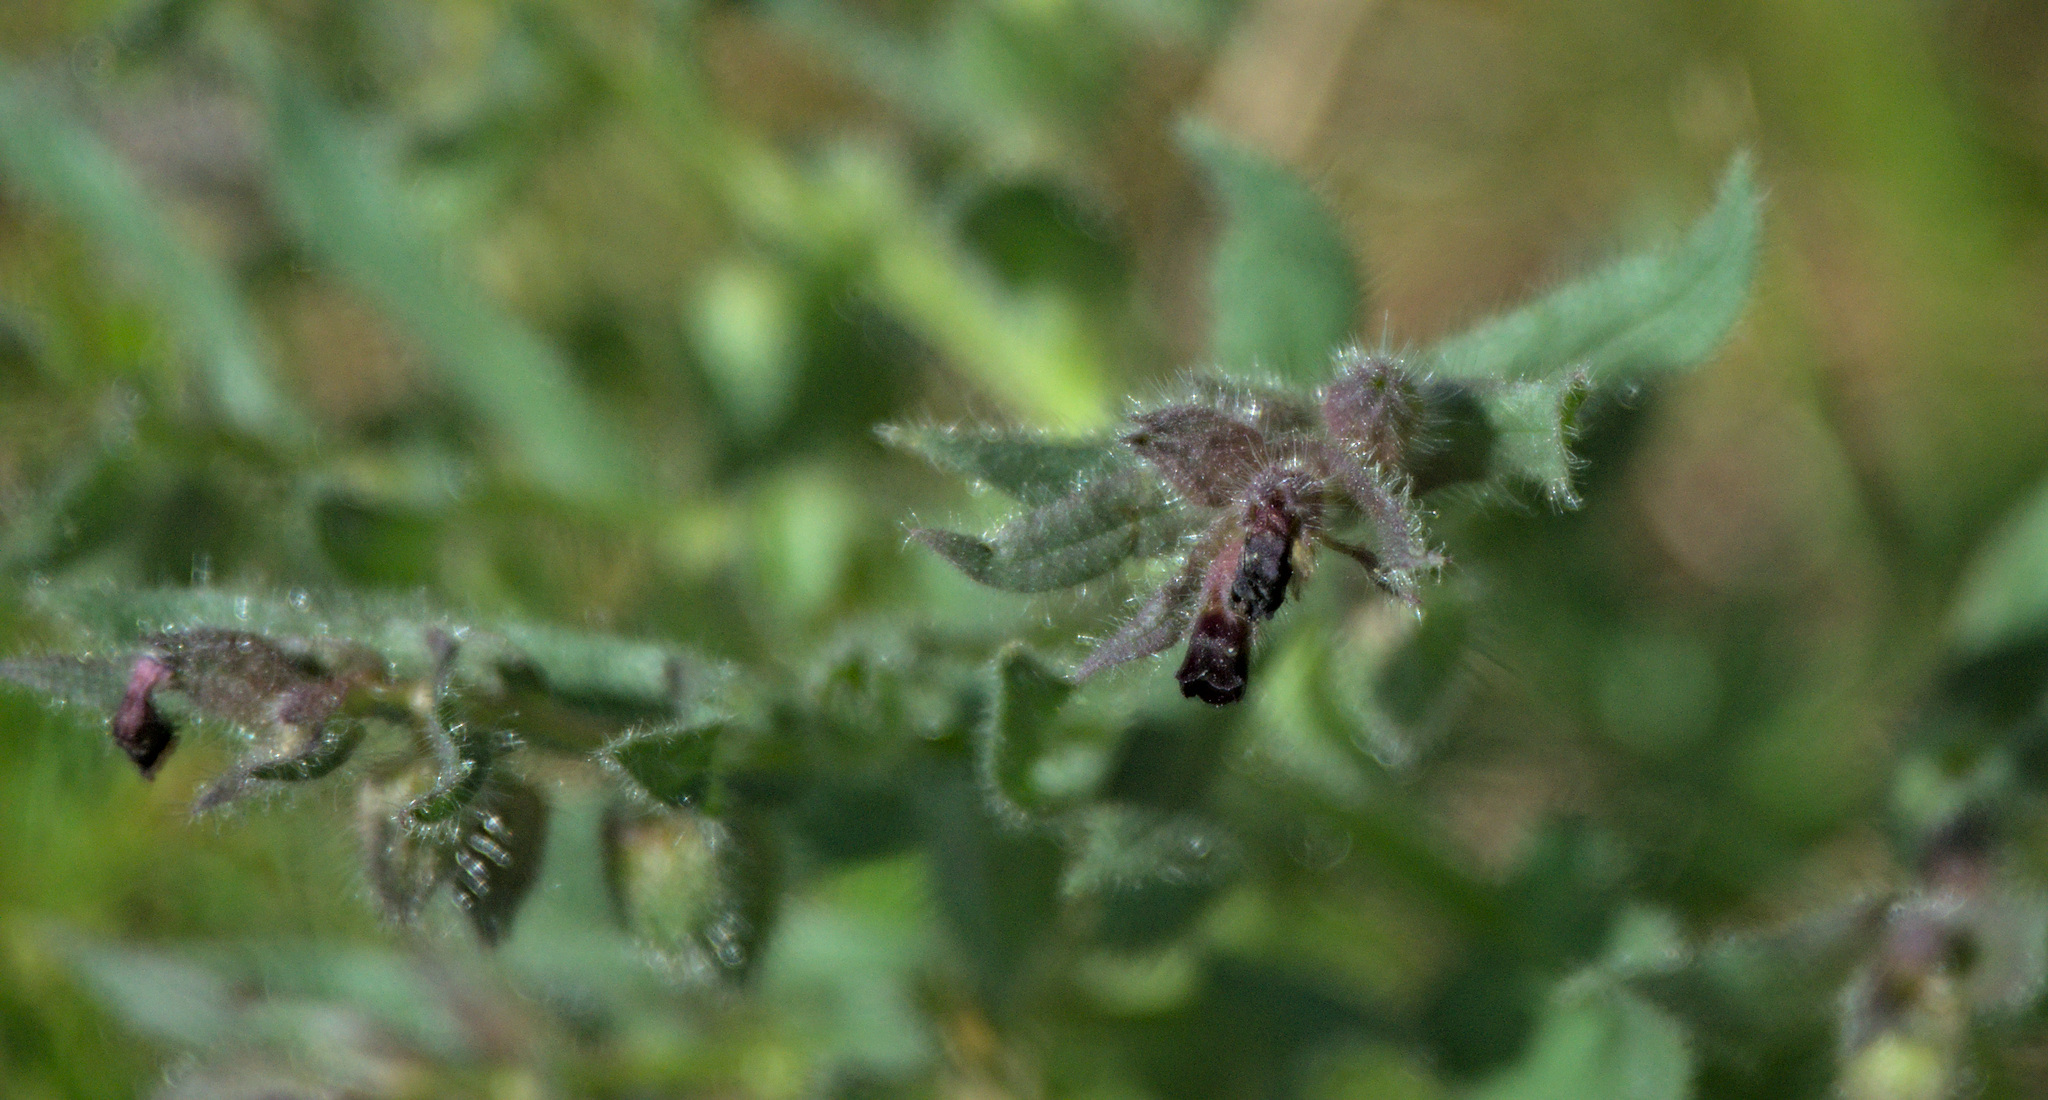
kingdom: Plantae
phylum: Tracheophyta
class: Magnoliopsida
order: Boraginales
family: Boraginaceae
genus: Nonea
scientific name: Nonea pulla
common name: Brown nonea
